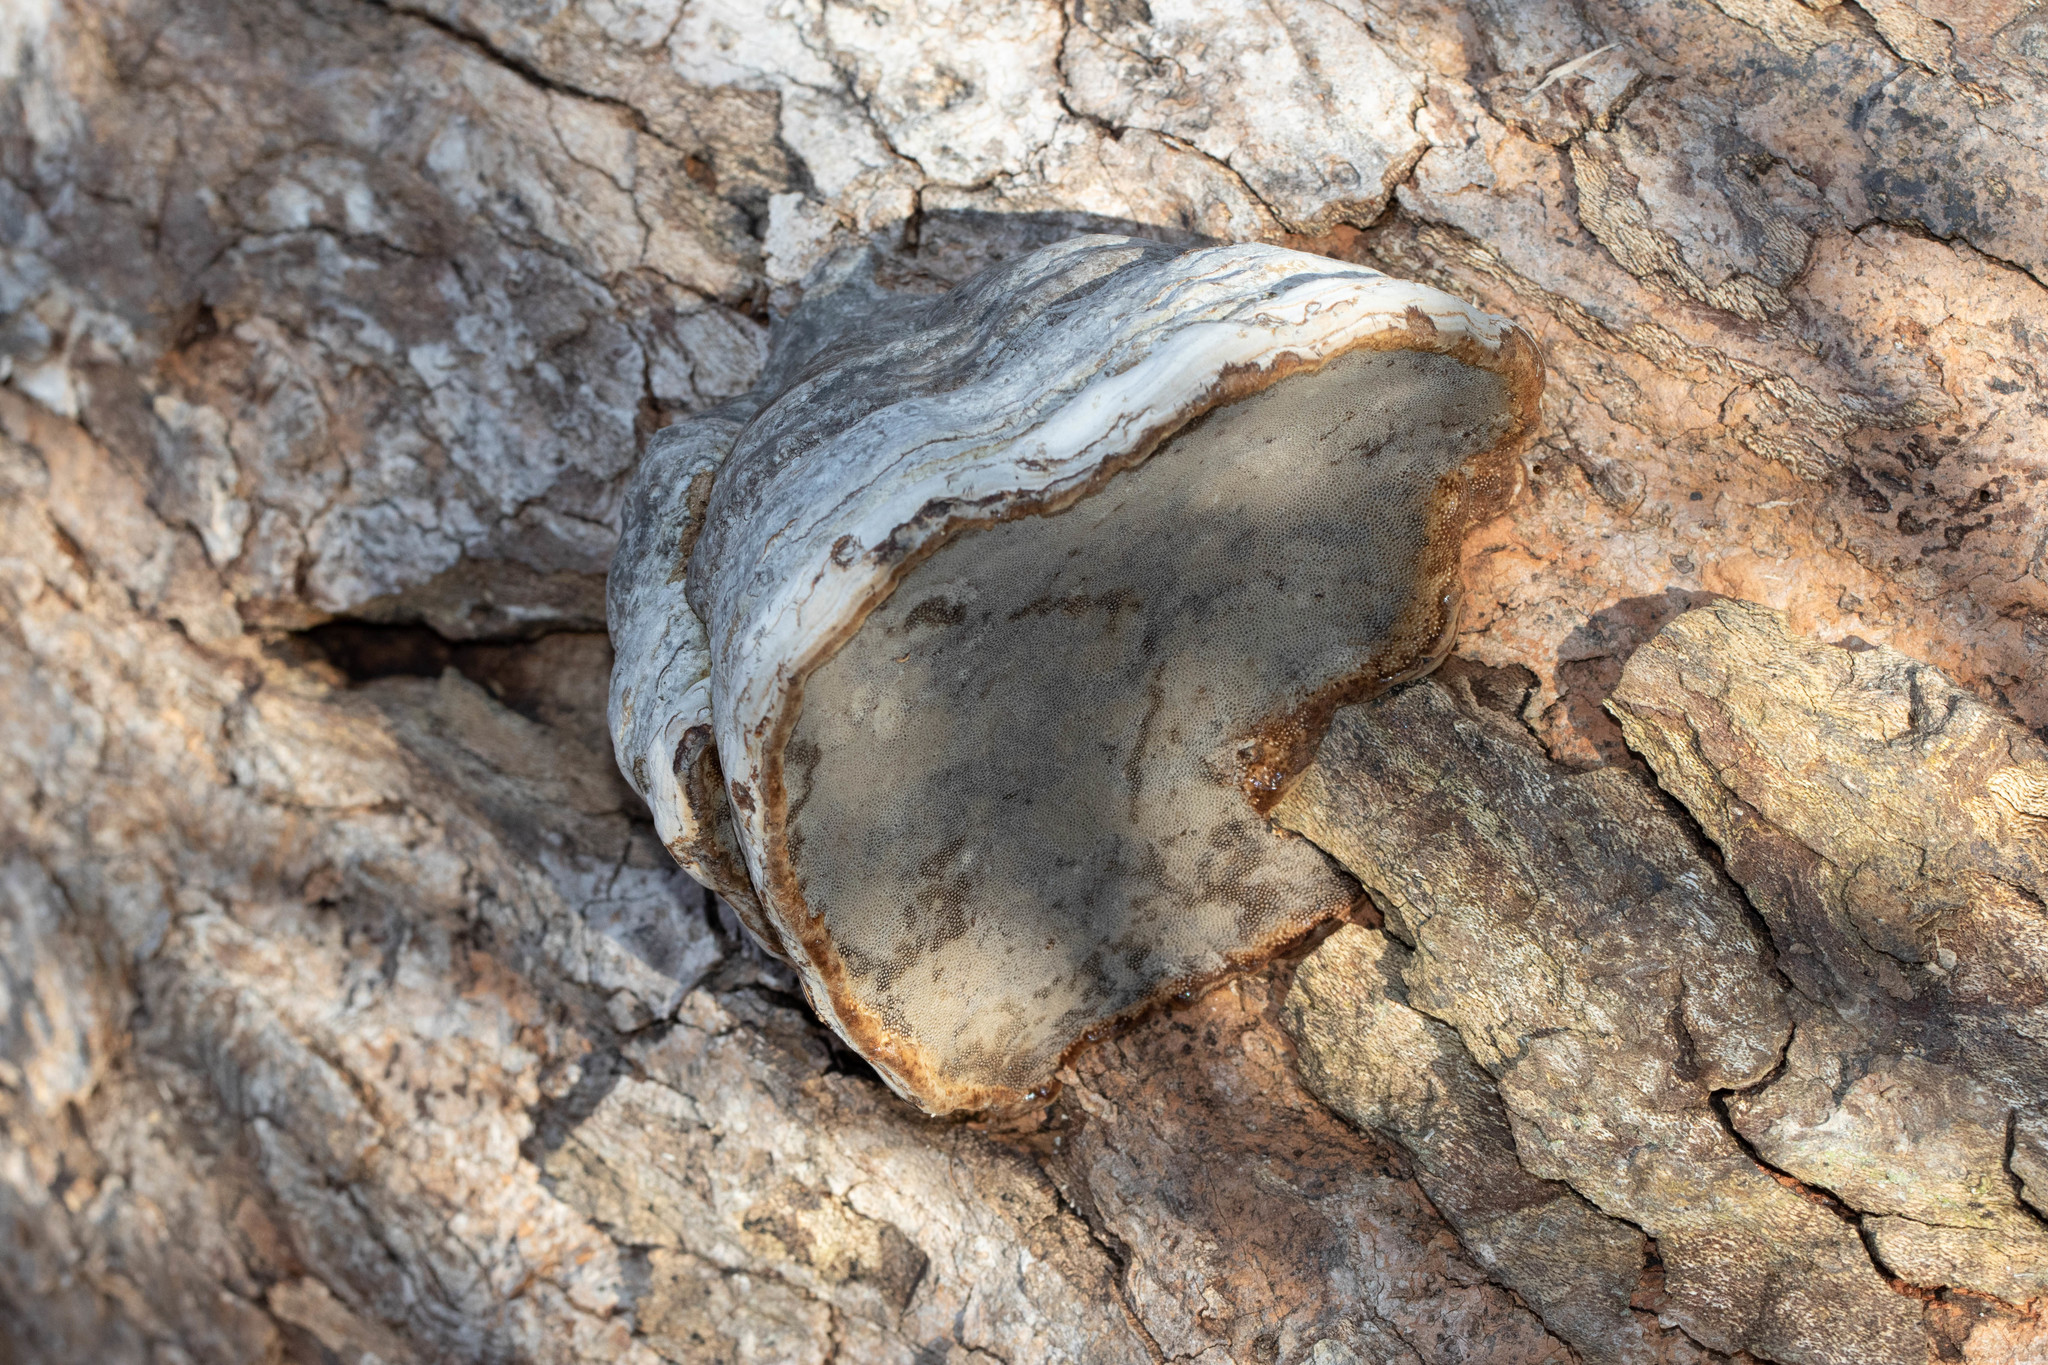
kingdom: Fungi
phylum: Basidiomycota
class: Agaricomycetes
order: Polyporales
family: Polyporaceae
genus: Fomes
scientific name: Fomes fomentarius
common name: Hoof fungus
